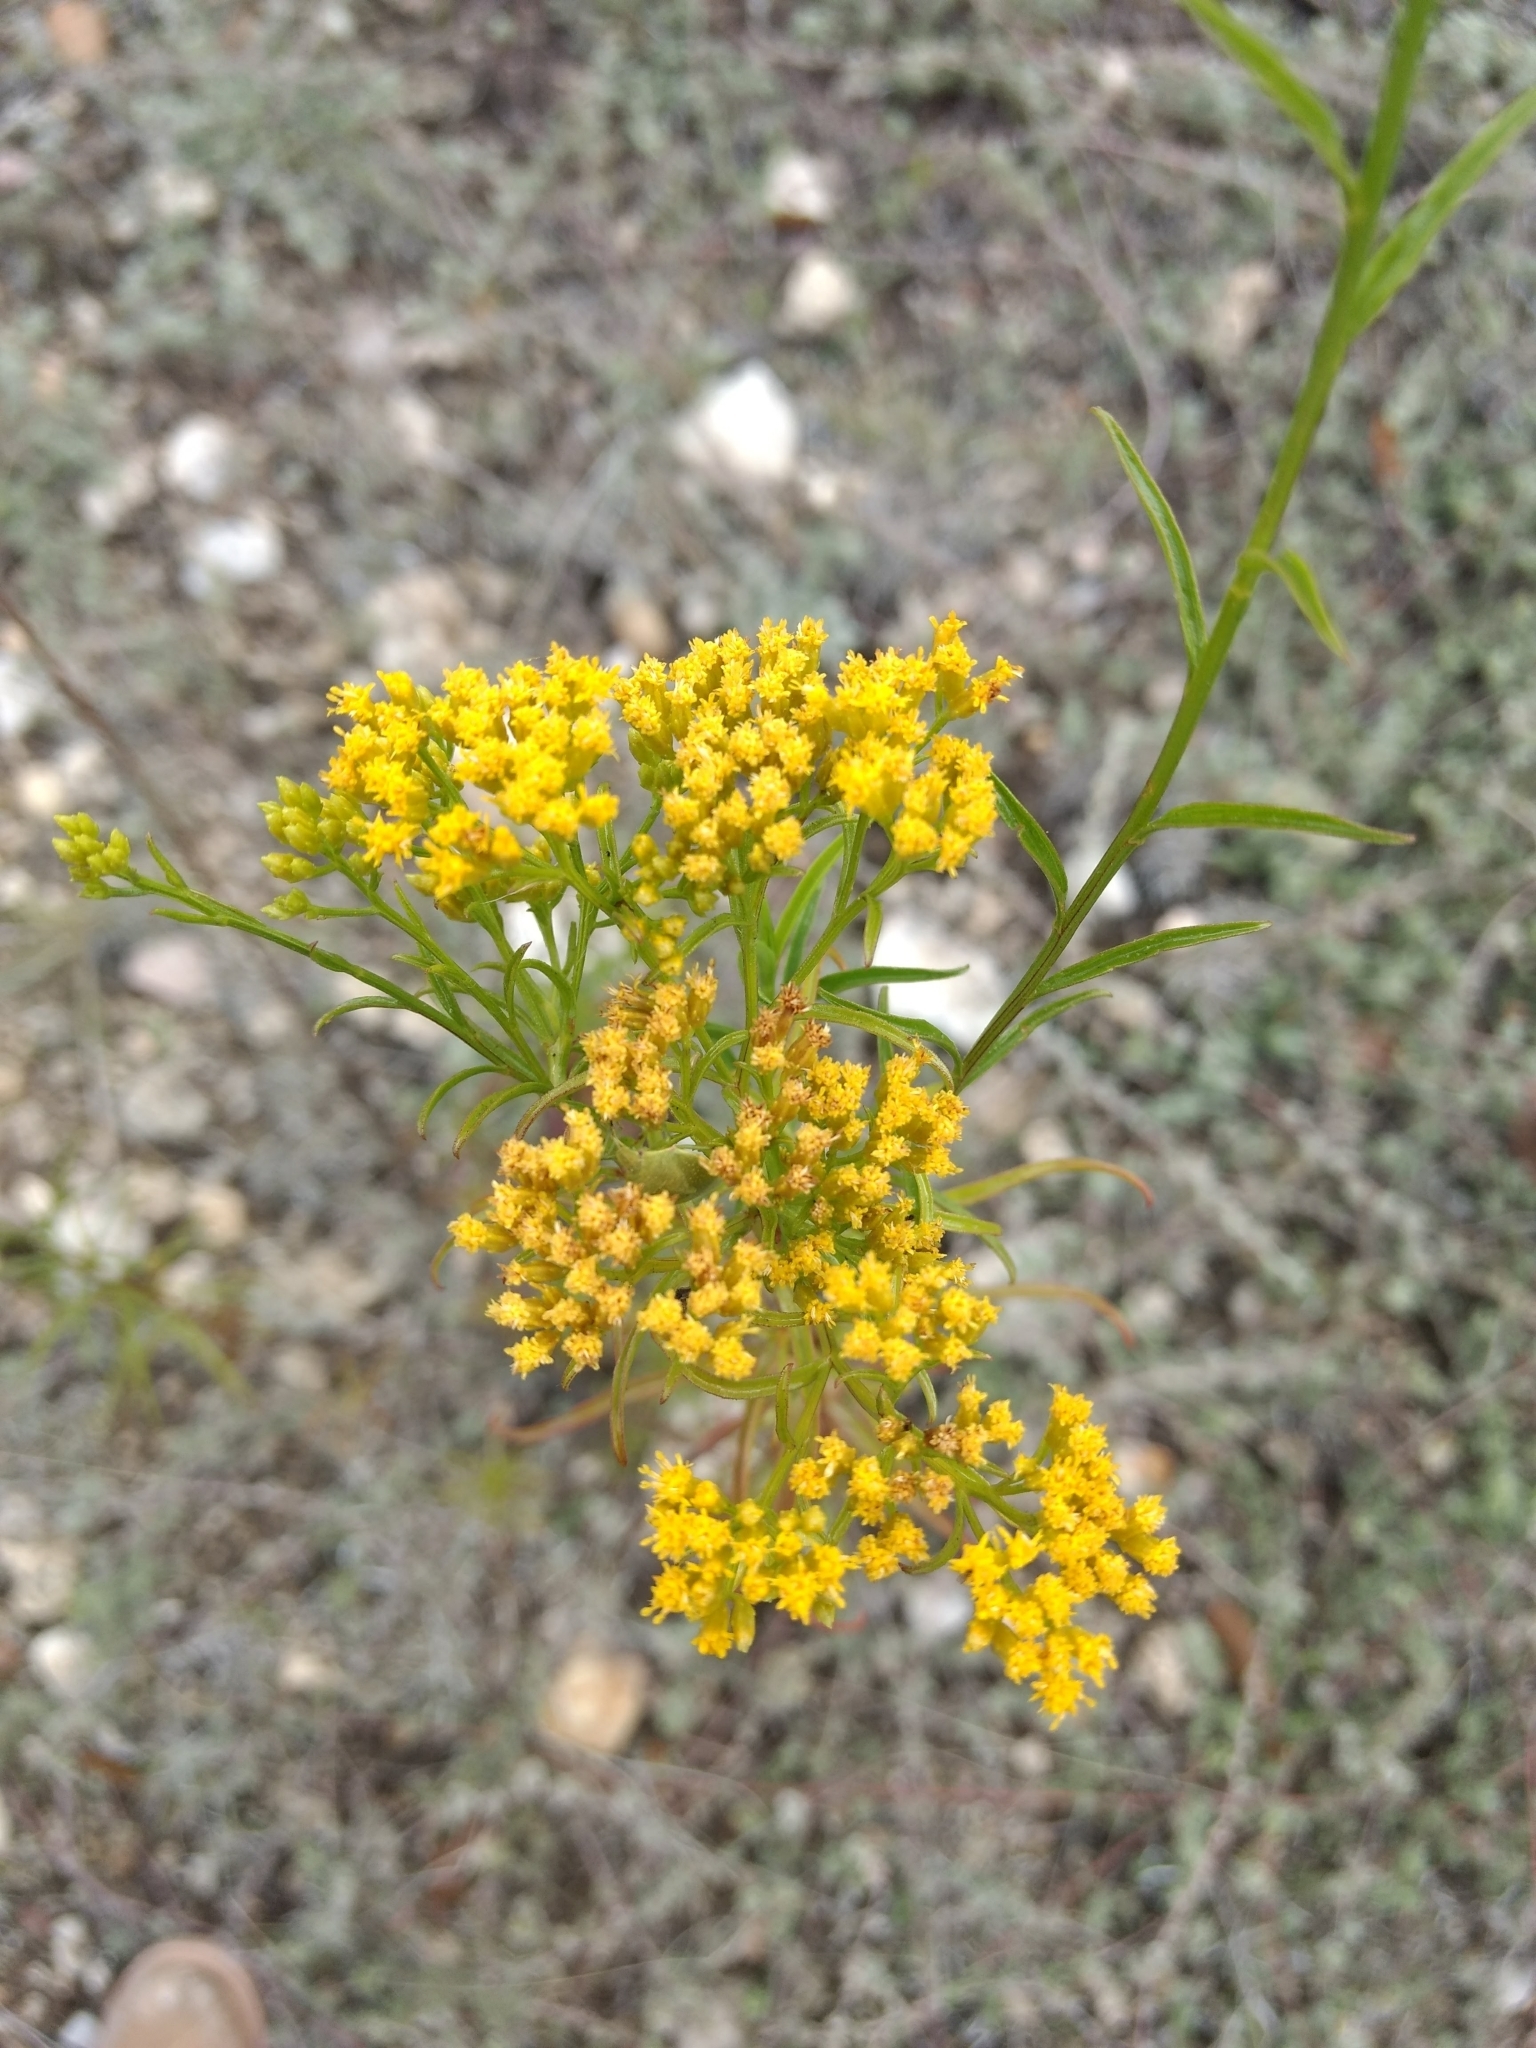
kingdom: Plantae
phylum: Tracheophyta
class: Magnoliopsida
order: Asterales
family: Asteraceae
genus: Gymnosperma
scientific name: Gymnosperma glutinosum
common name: Gumhead
